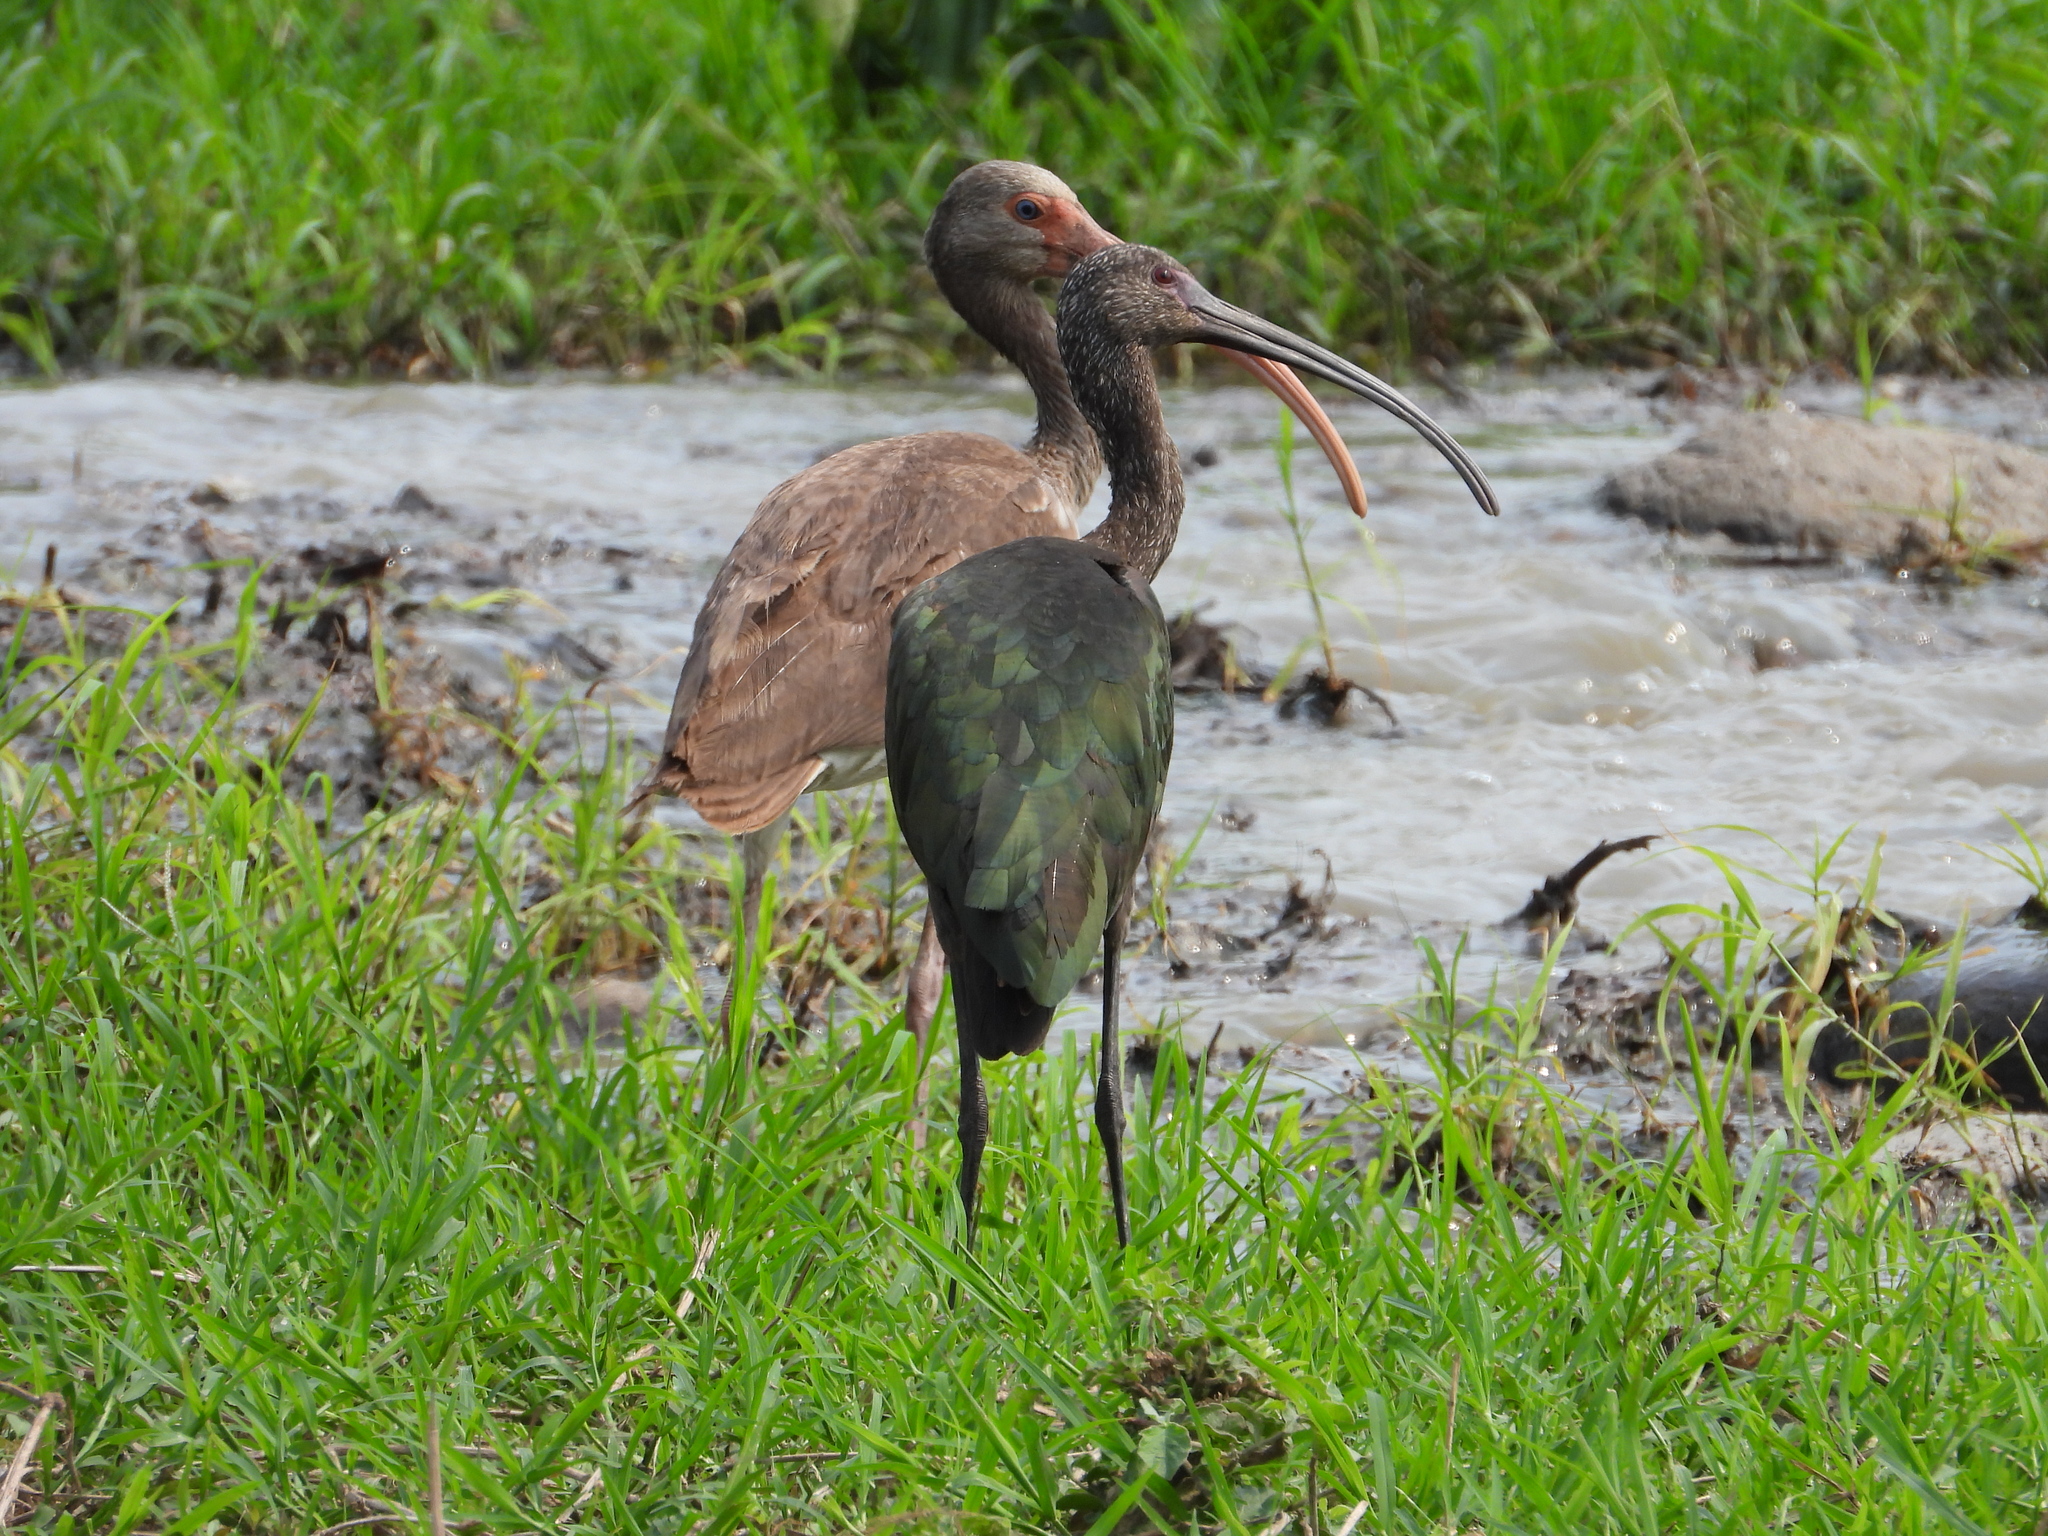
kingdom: Animalia
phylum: Chordata
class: Aves
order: Pelecaniformes
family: Threskiornithidae
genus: Plegadis
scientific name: Plegadis chihi
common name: White-faced ibis
